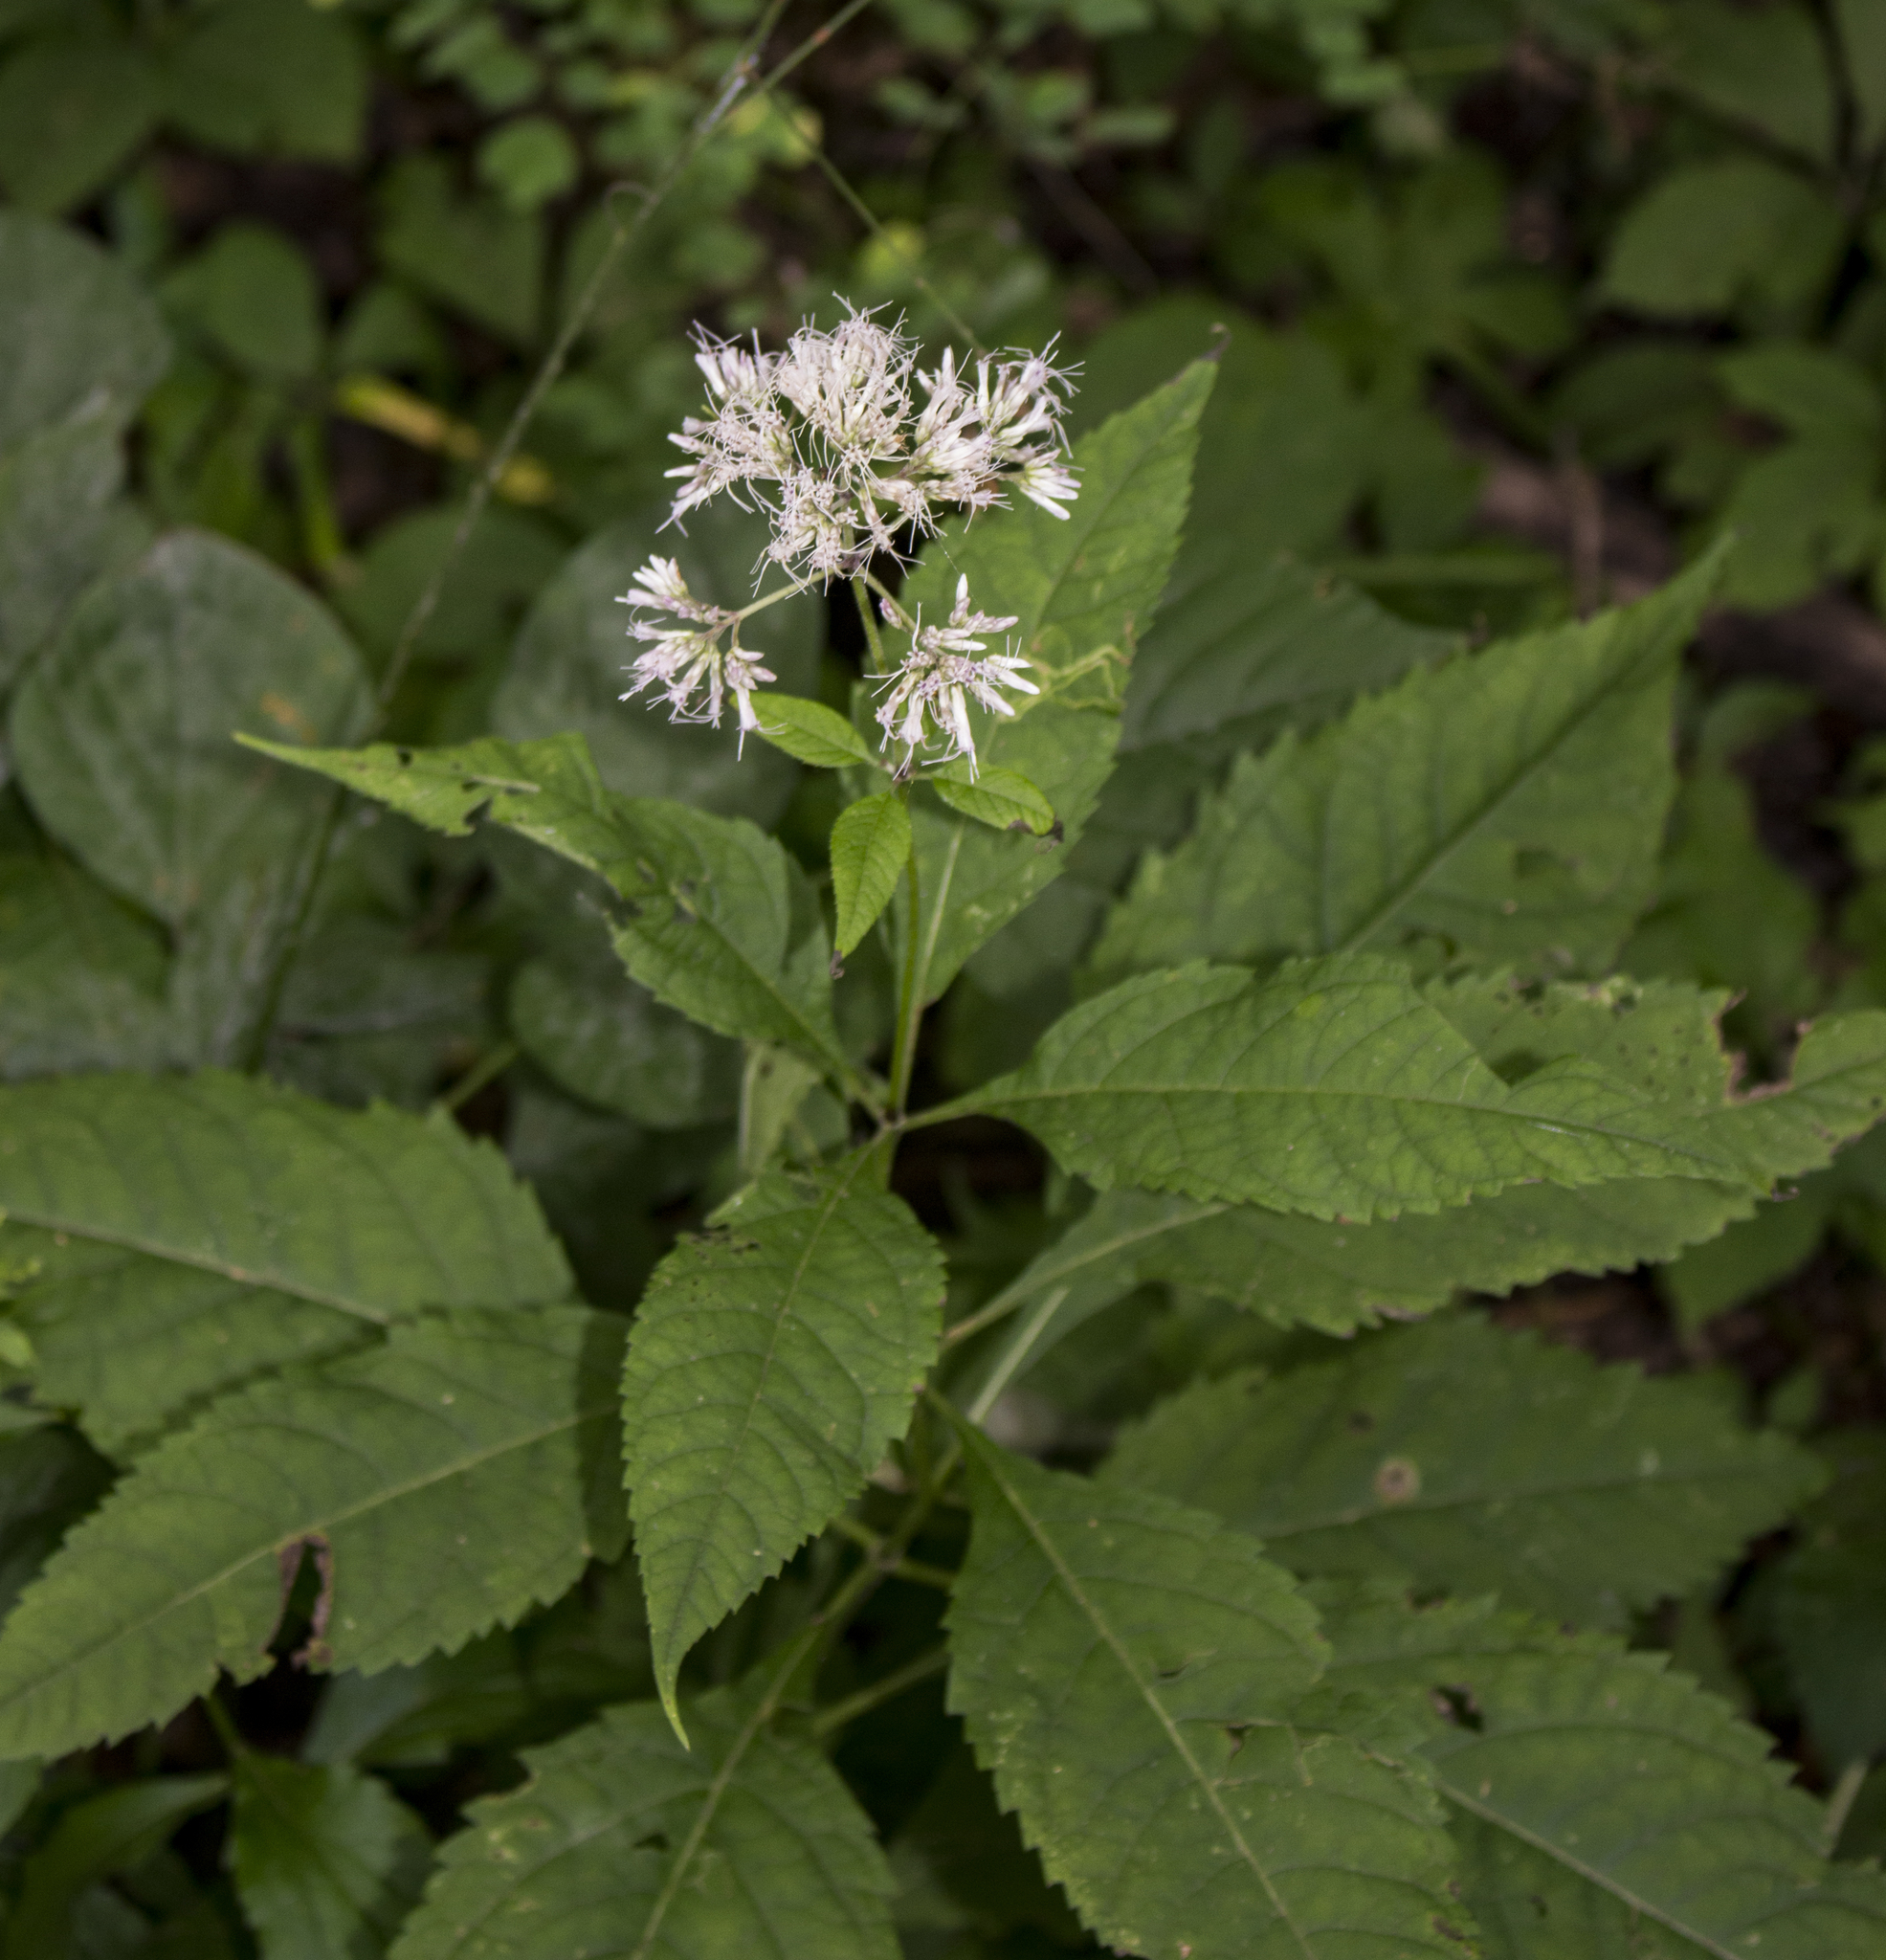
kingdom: Plantae
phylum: Tracheophyta
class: Magnoliopsida
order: Asterales
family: Asteraceae
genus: Eutrochium
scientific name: Eutrochium purpureum
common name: Gravelroot
